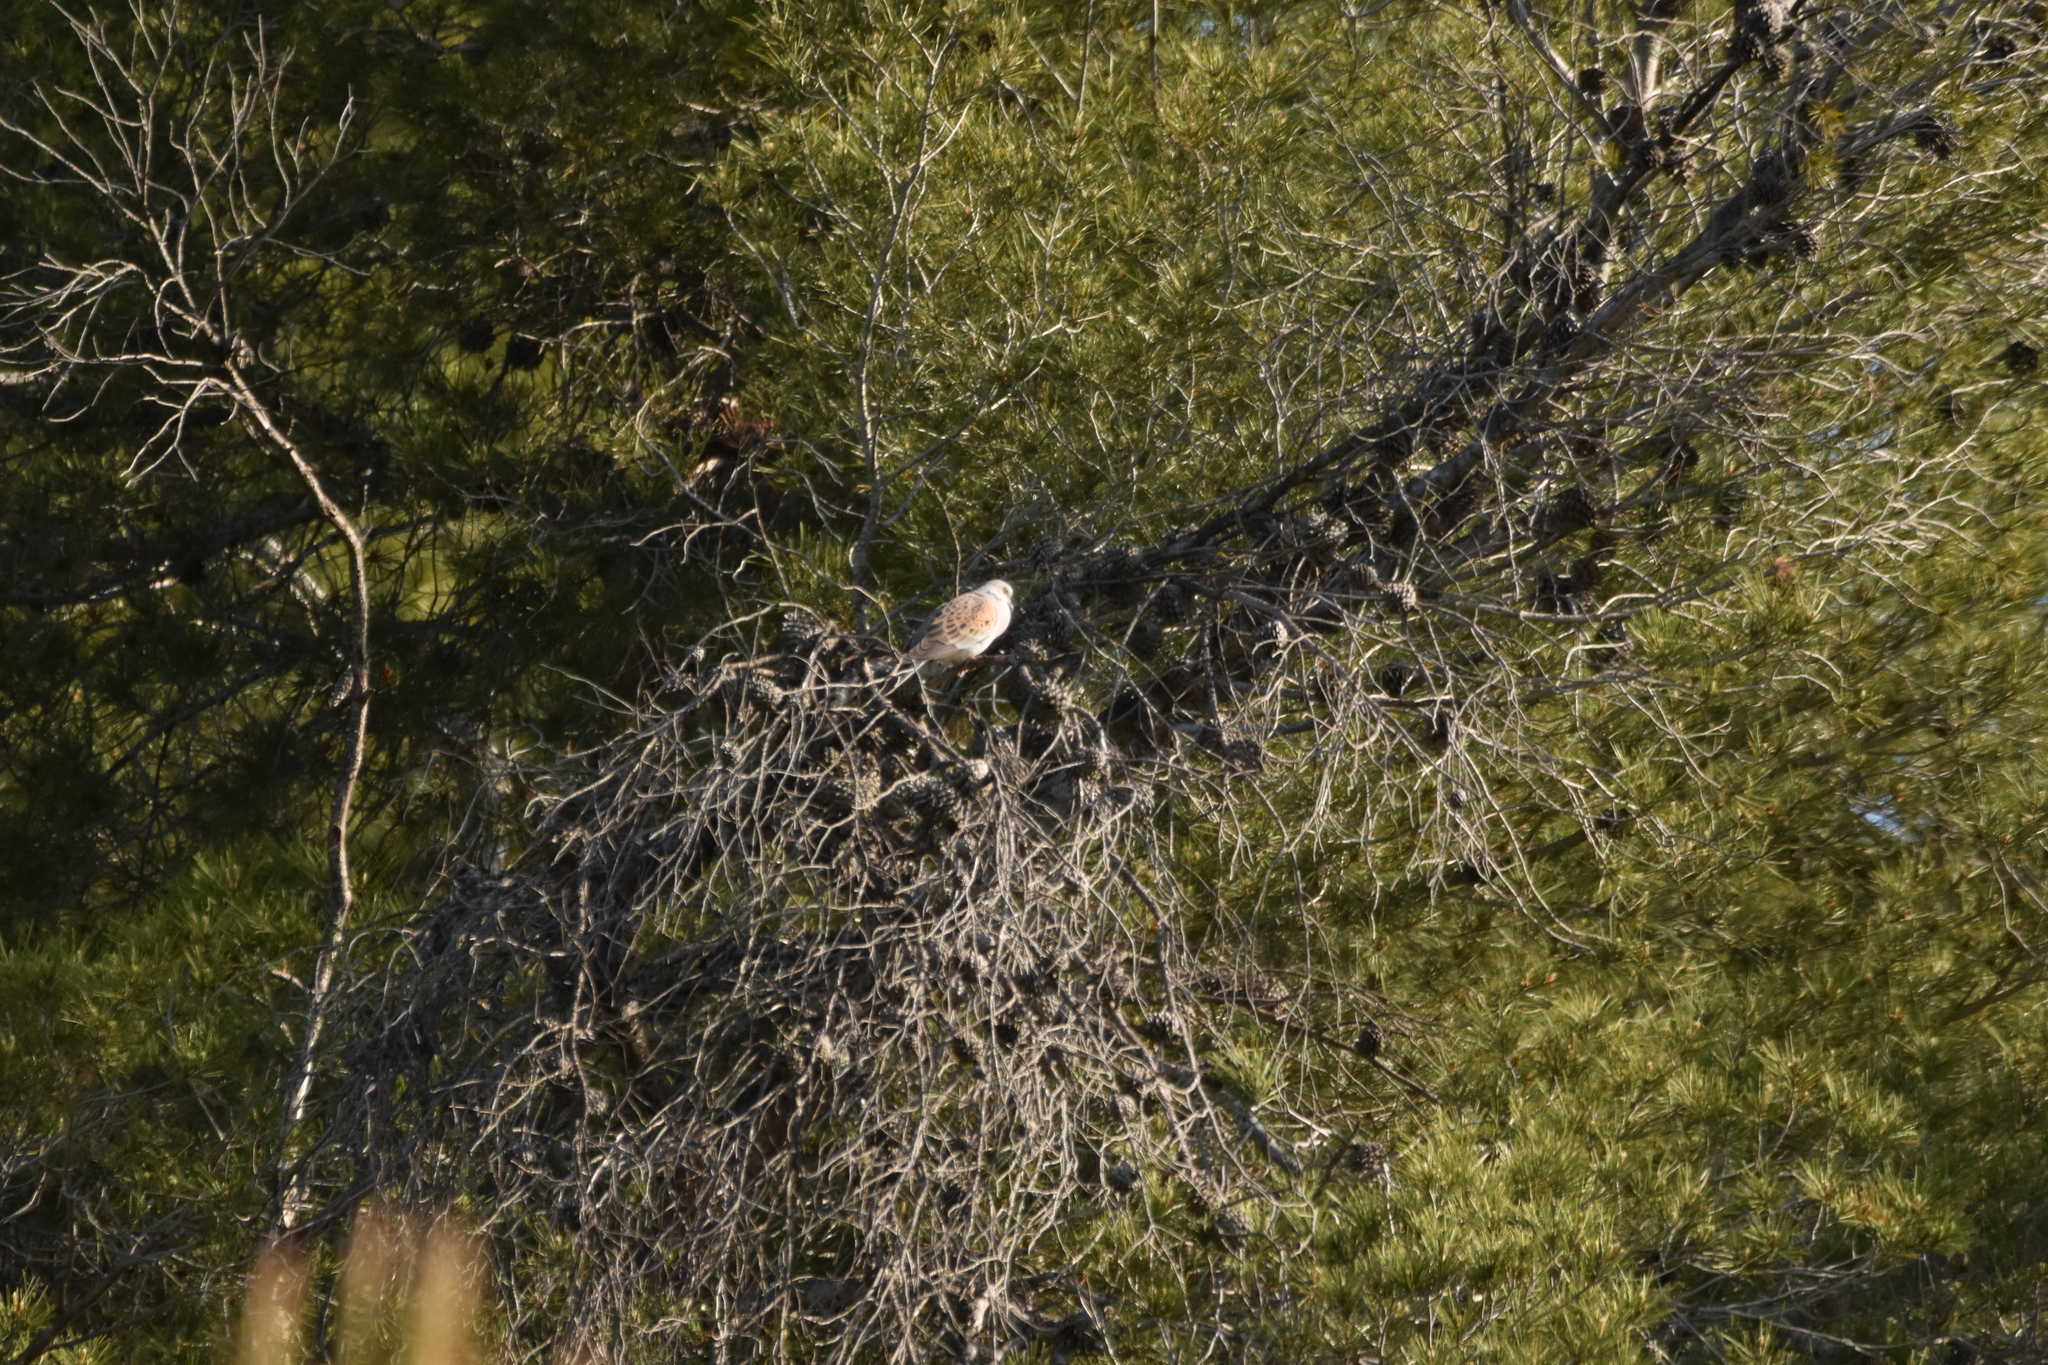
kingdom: Animalia
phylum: Chordata
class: Aves
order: Columbiformes
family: Columbidae
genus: Streptopelia
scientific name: Streptopelia turtur
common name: European turtle dove
